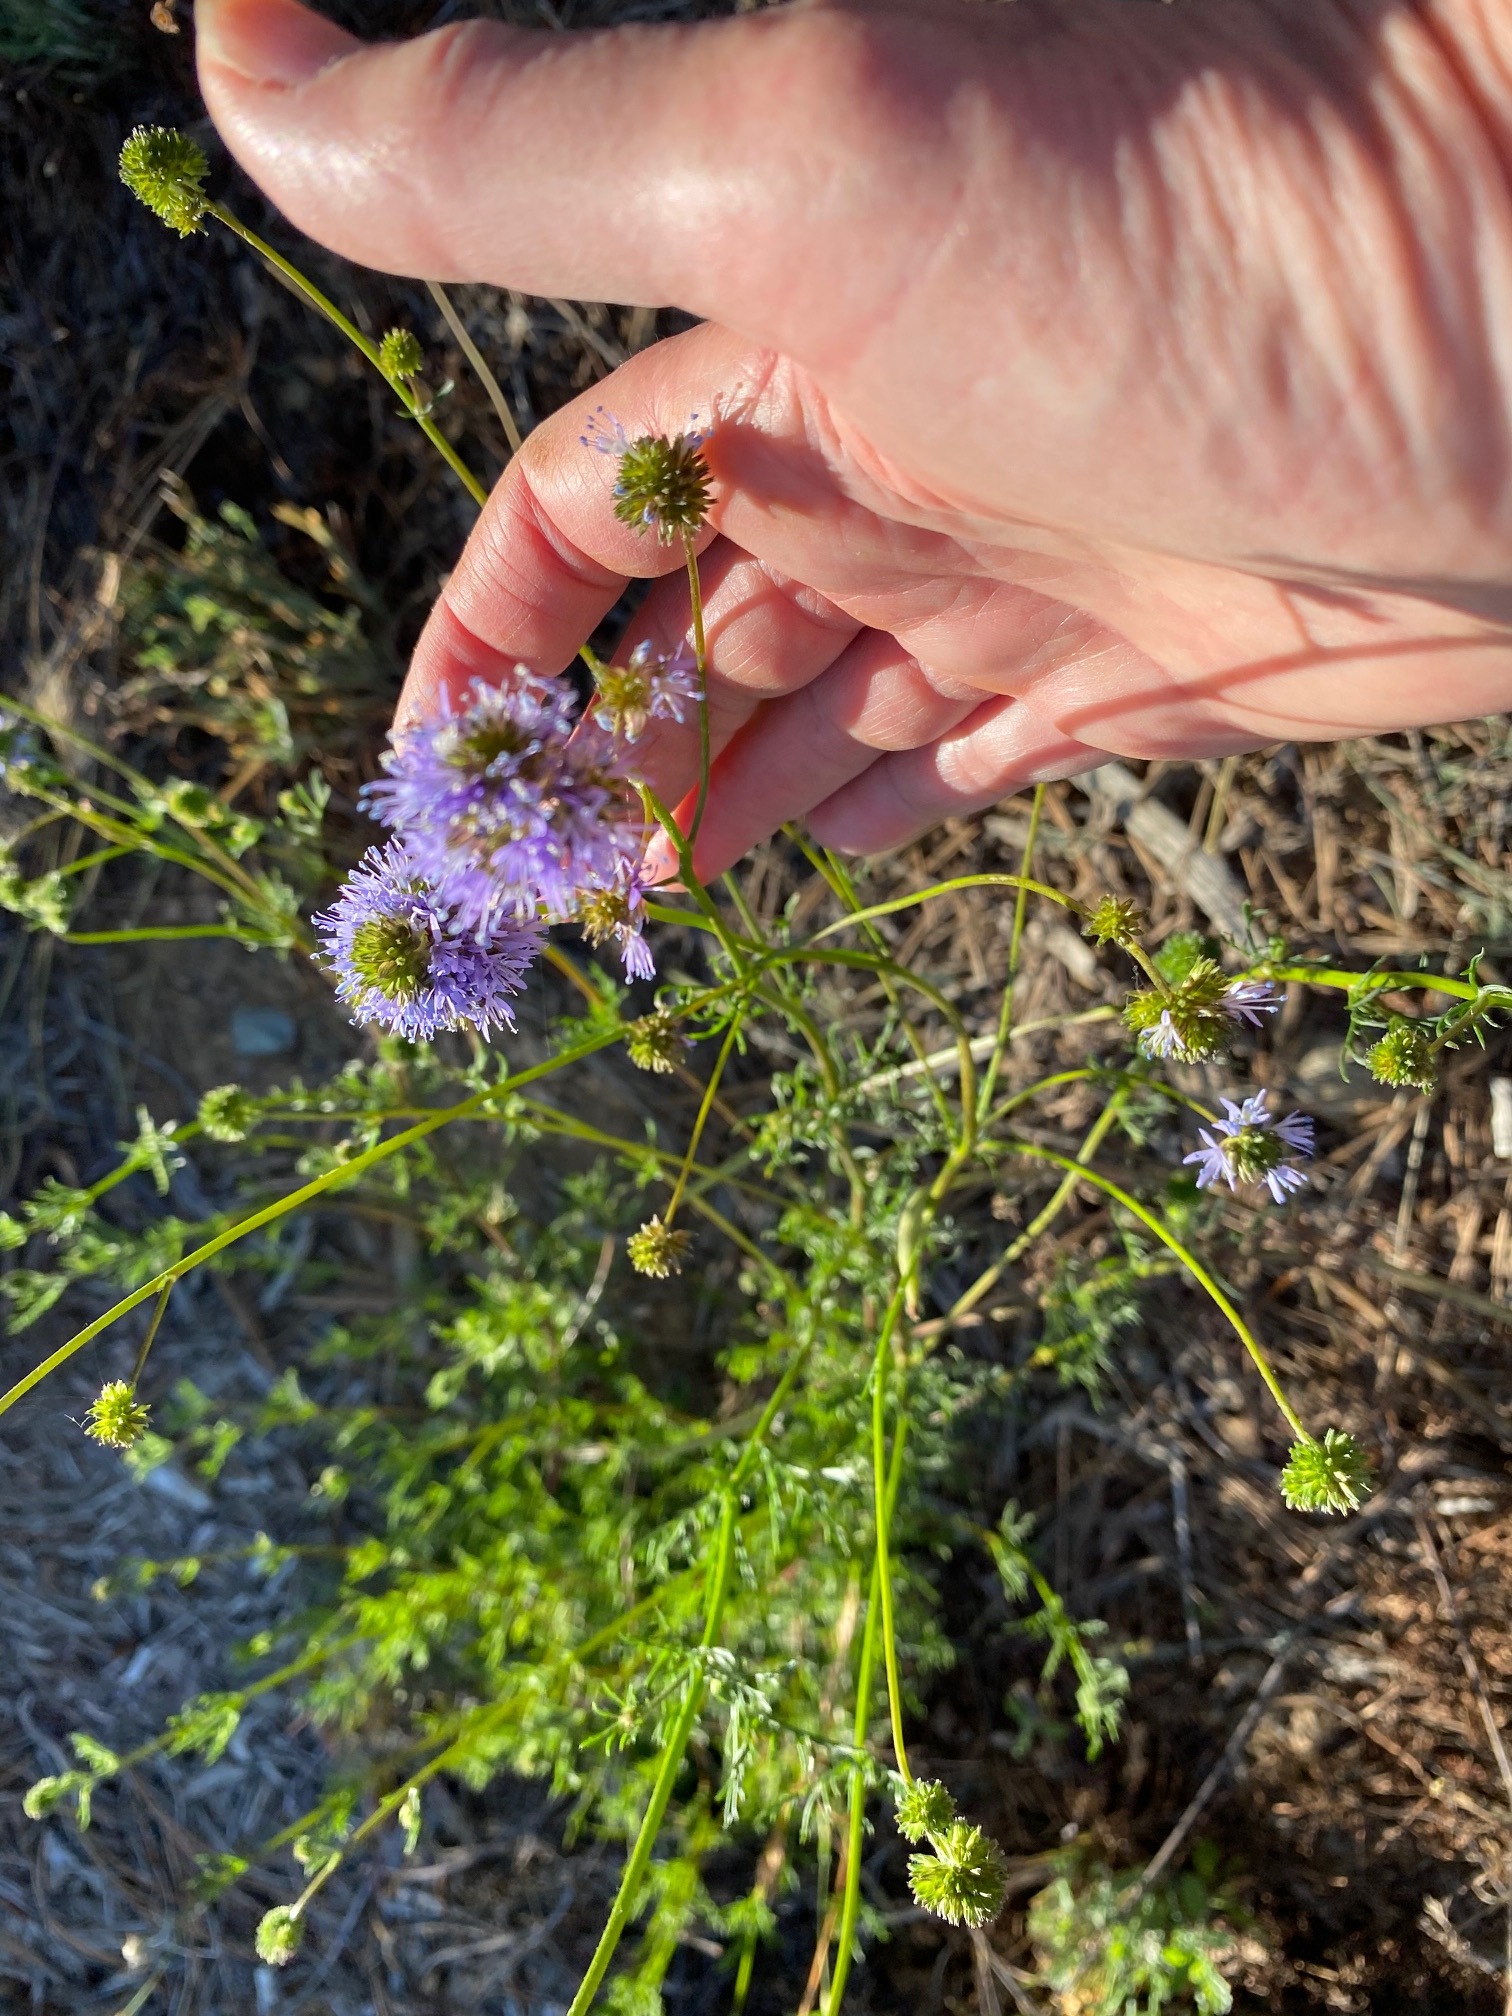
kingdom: Plantae
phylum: Tracheophyta
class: Magnoliopsida
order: Ericales
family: Polemoniaceae
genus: Gilia
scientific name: Gilia capitata
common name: Bluehead gilia
